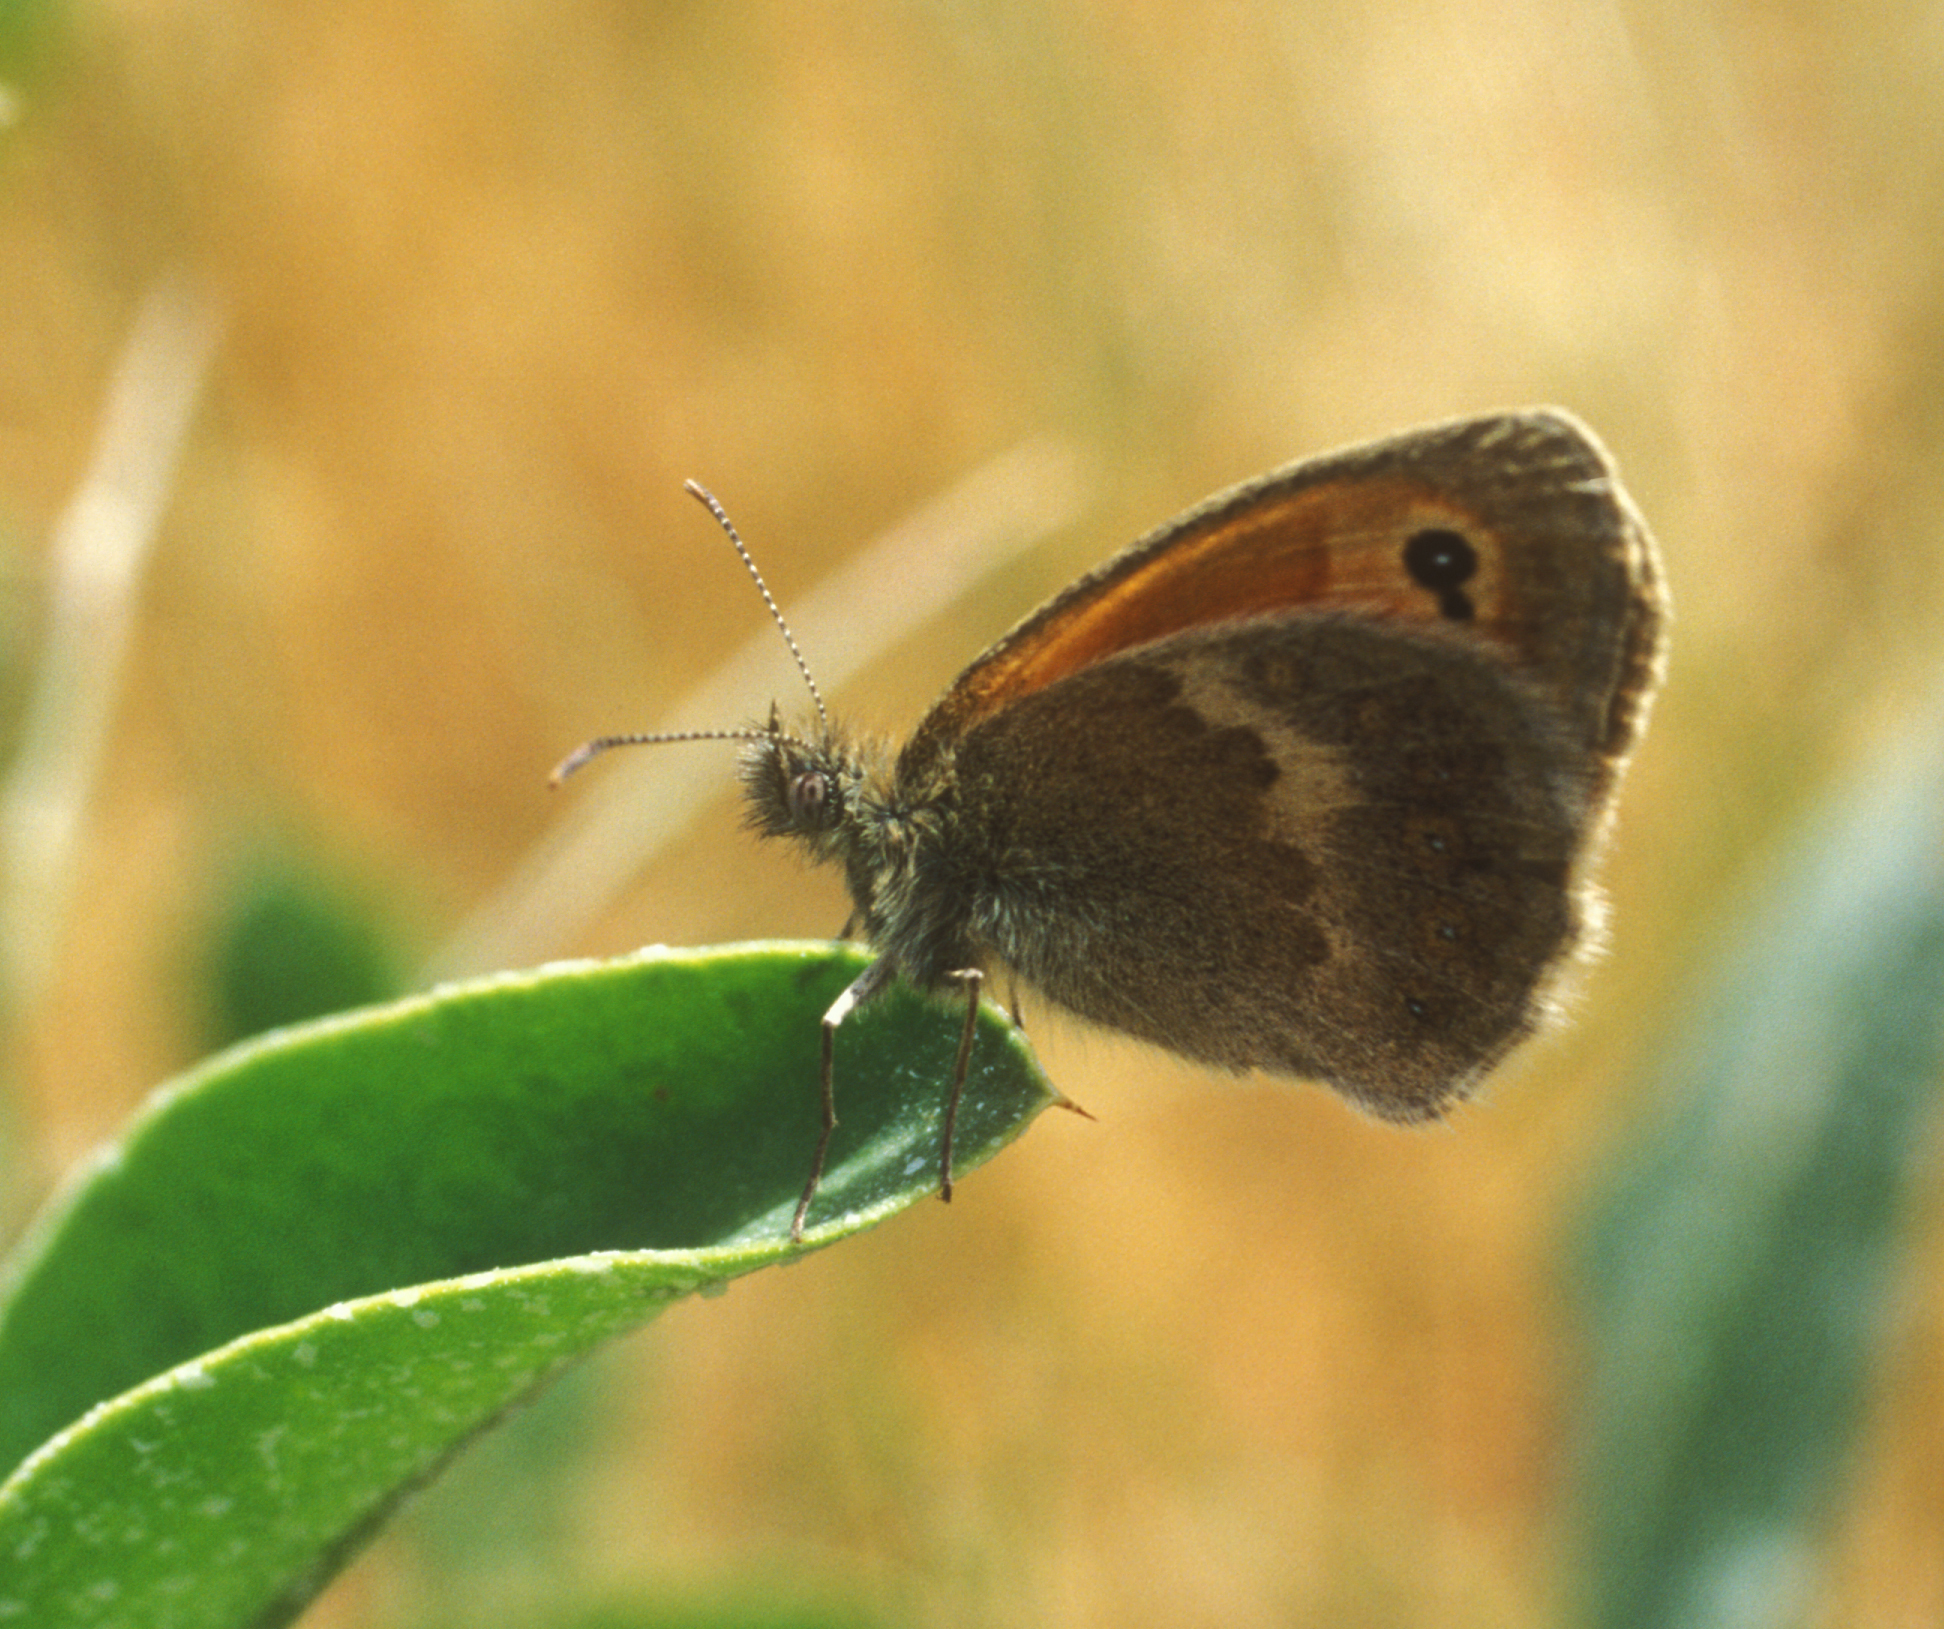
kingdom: Animalia
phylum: Arthropoda
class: Insecta
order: Lepidoptera
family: Nymphalidae
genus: Coenonympha
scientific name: Coenonympha pamphilus
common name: Small heath
